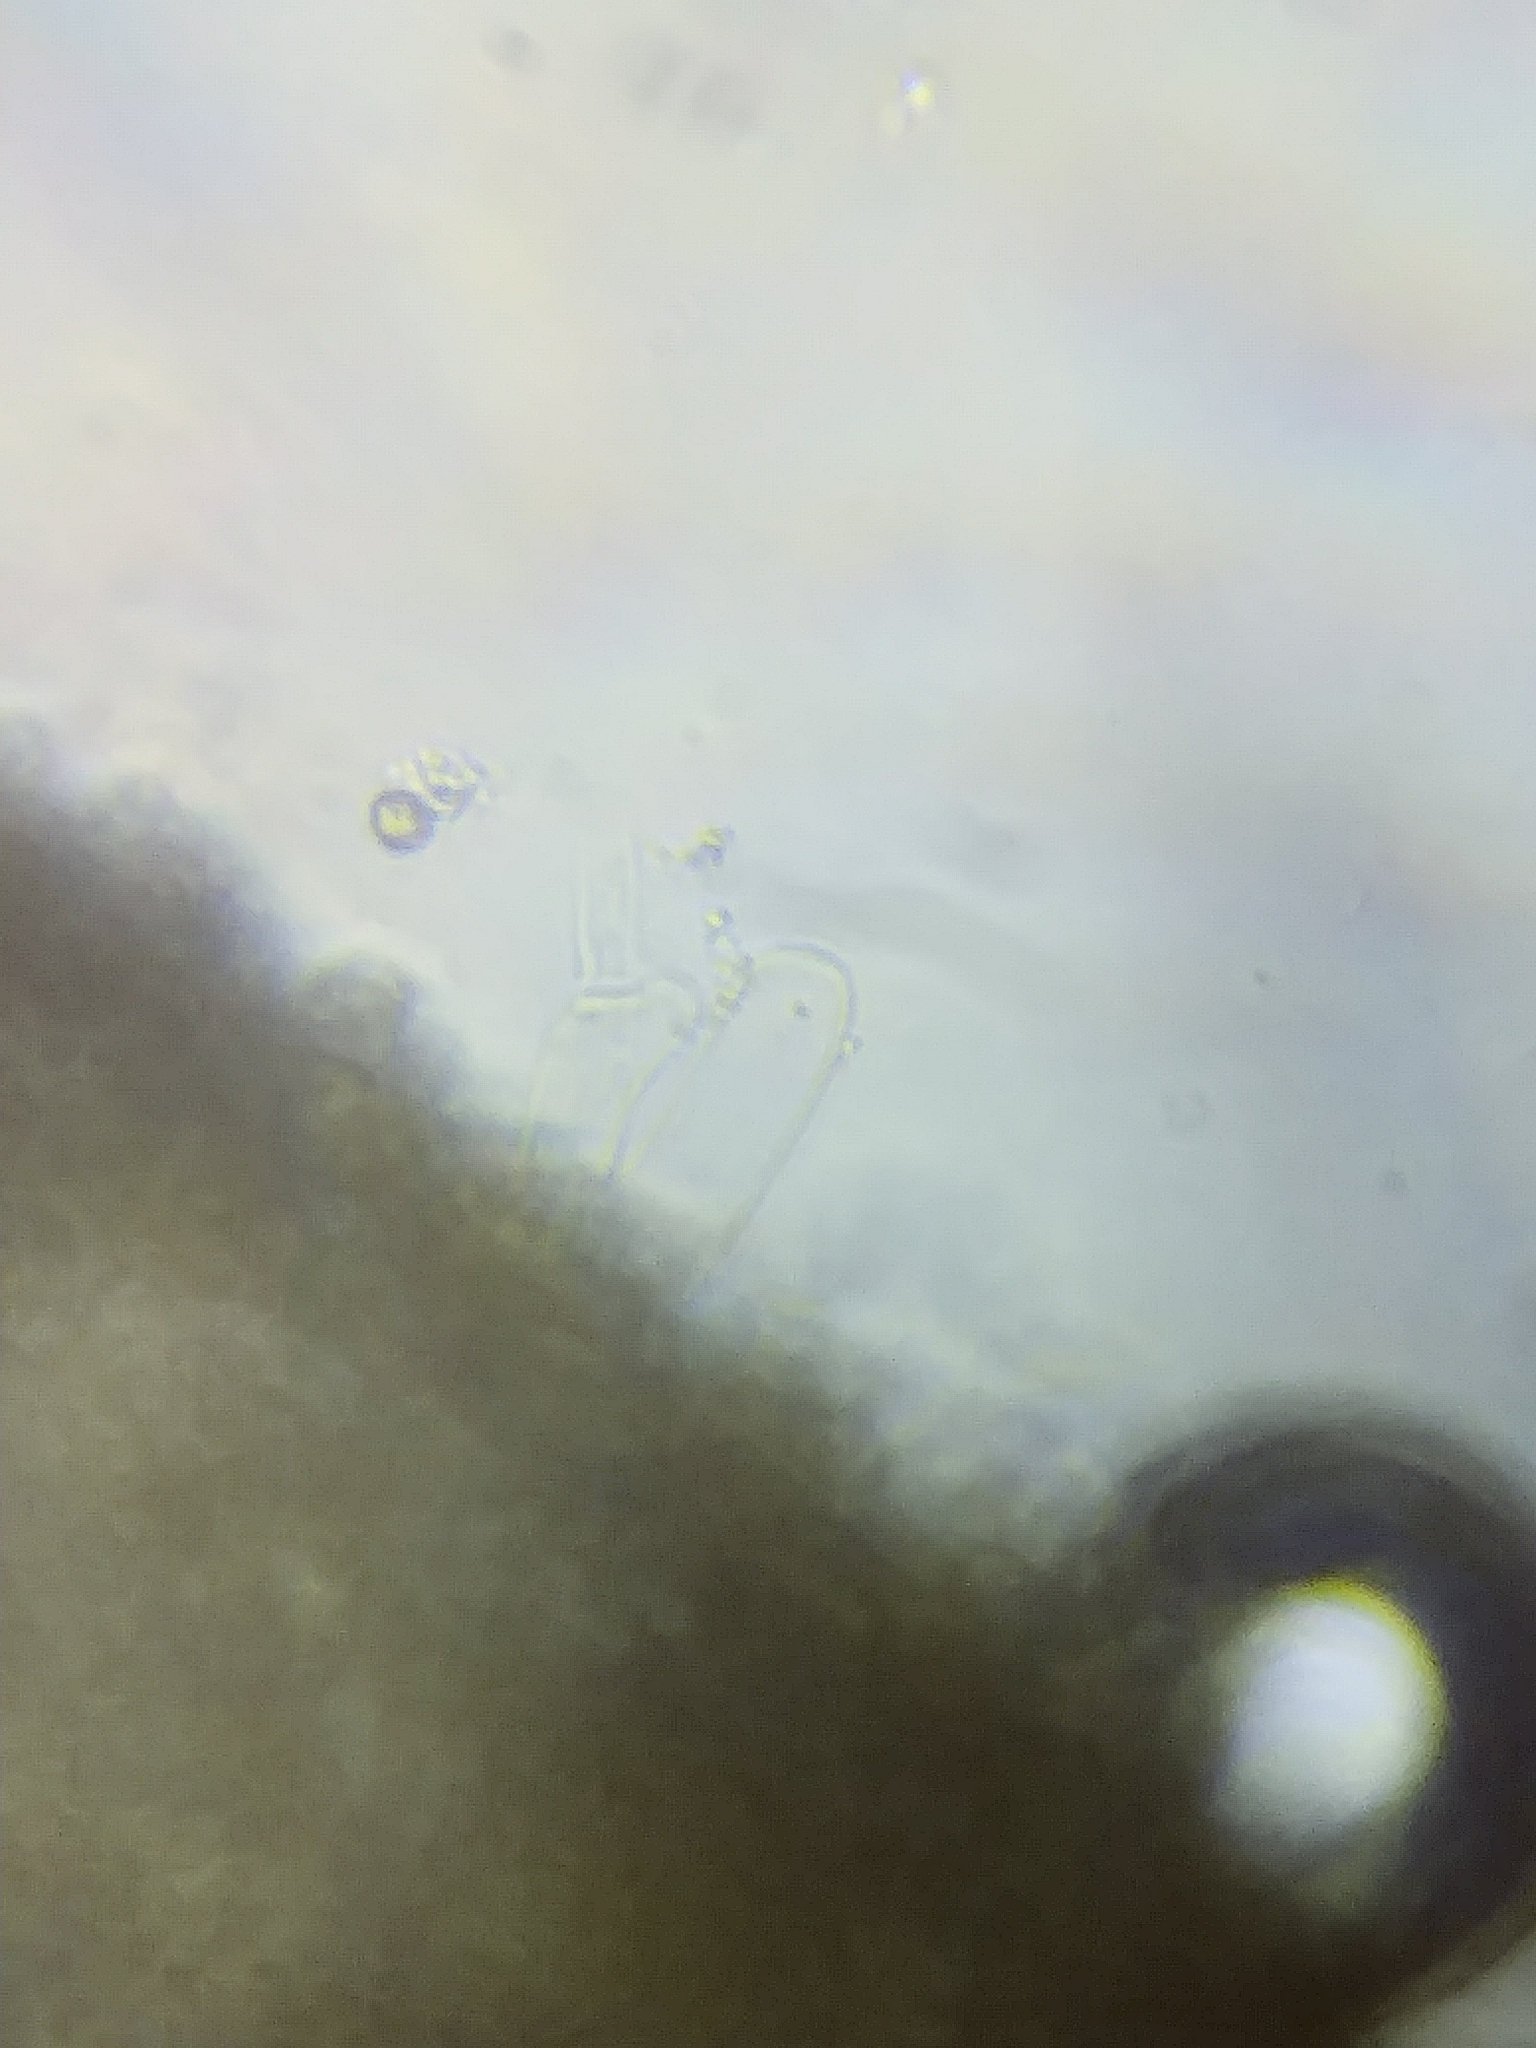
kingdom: Fungi
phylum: Basidiomycota
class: Agaricomycetes
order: Agaricales
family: Cortinariaceae
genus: Thaxterogaster
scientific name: Thaxterogaster causticus
